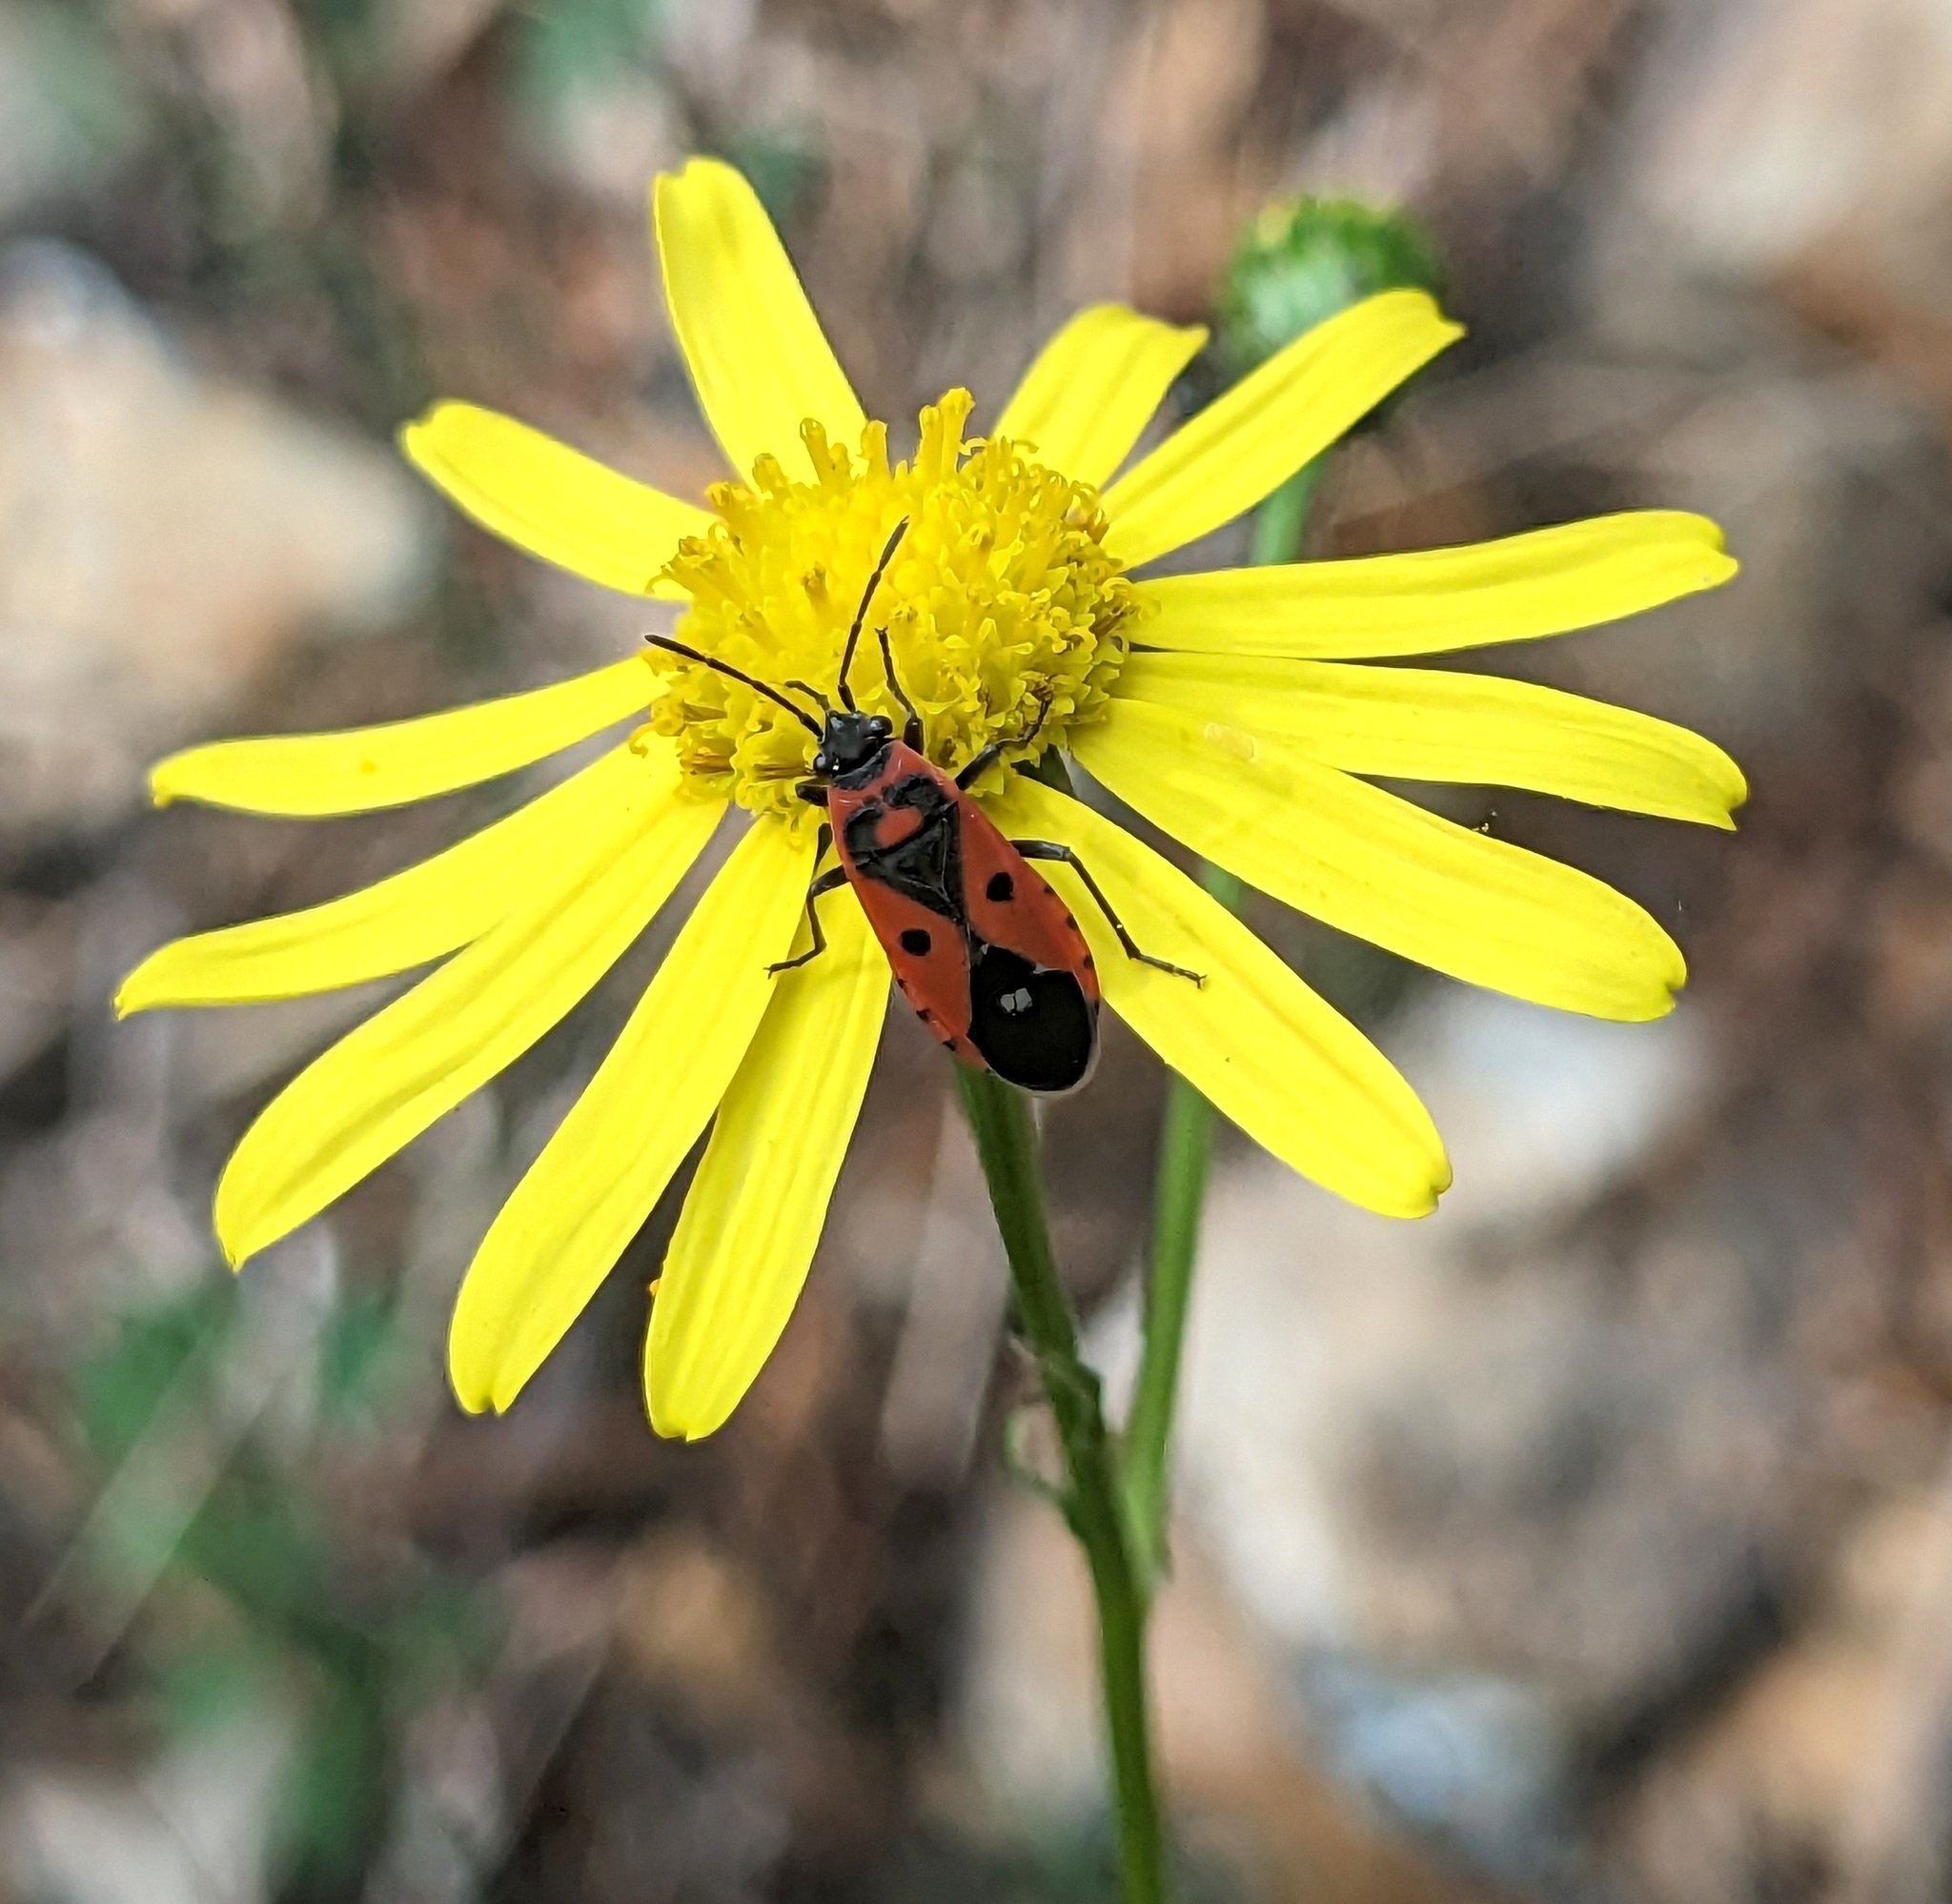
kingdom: Animalia
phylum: Arthropoda
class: Insecta
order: Hemiptera
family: Lygaeidae
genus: Melanocoryphus
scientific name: Melanocoryphus albomaculatus
